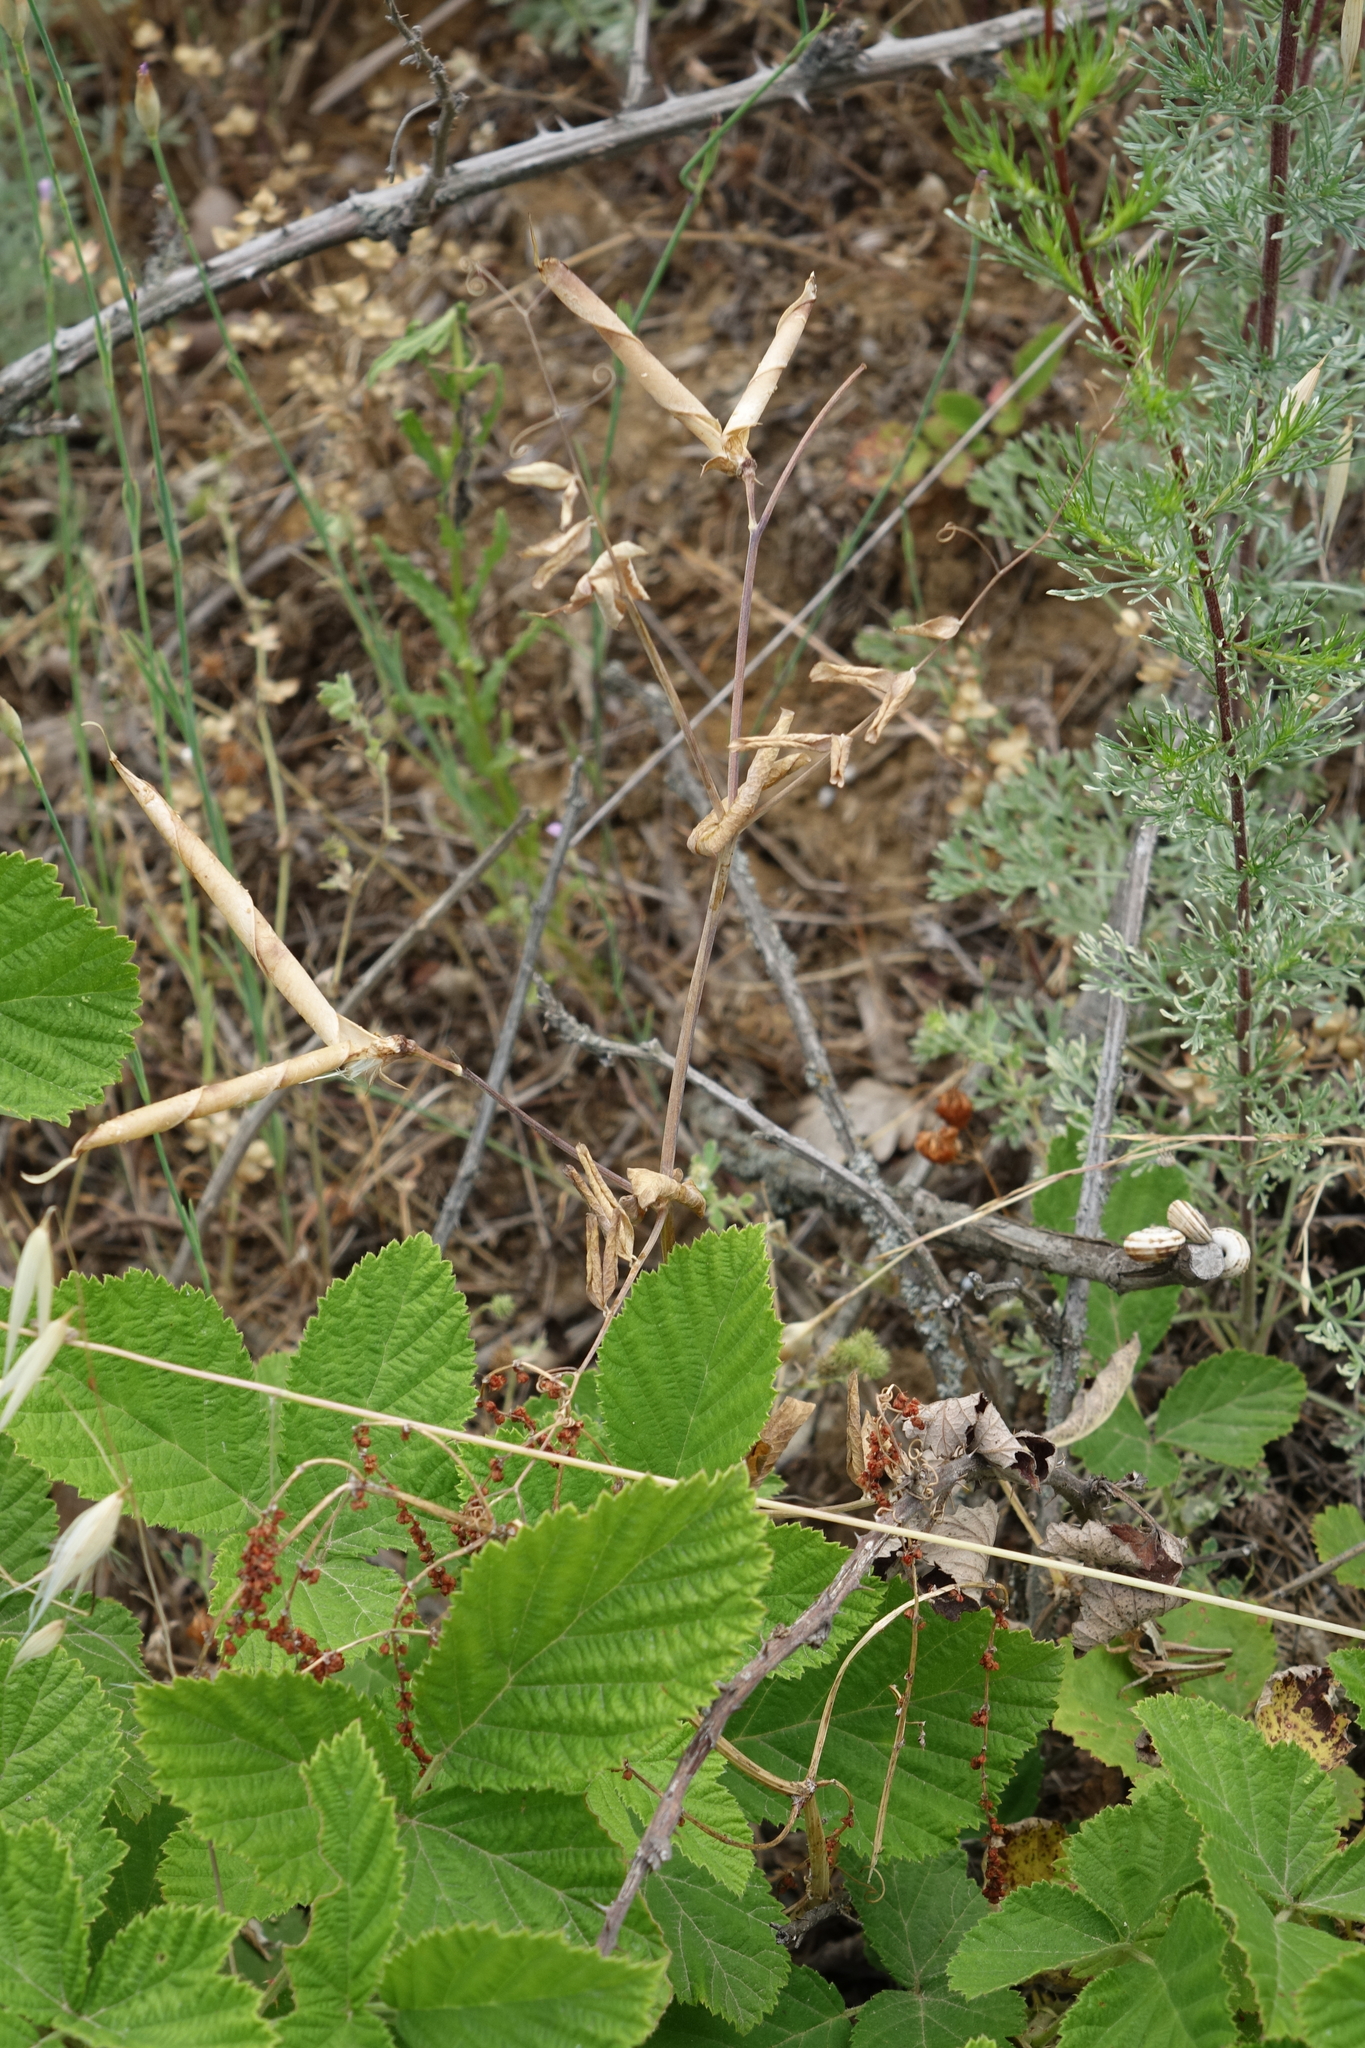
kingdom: Plantae
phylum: Tracheophyta
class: Magnoliopsida
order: Fabales
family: Fabaceae
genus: Lathyrus
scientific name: Lathyrus oleraceus
